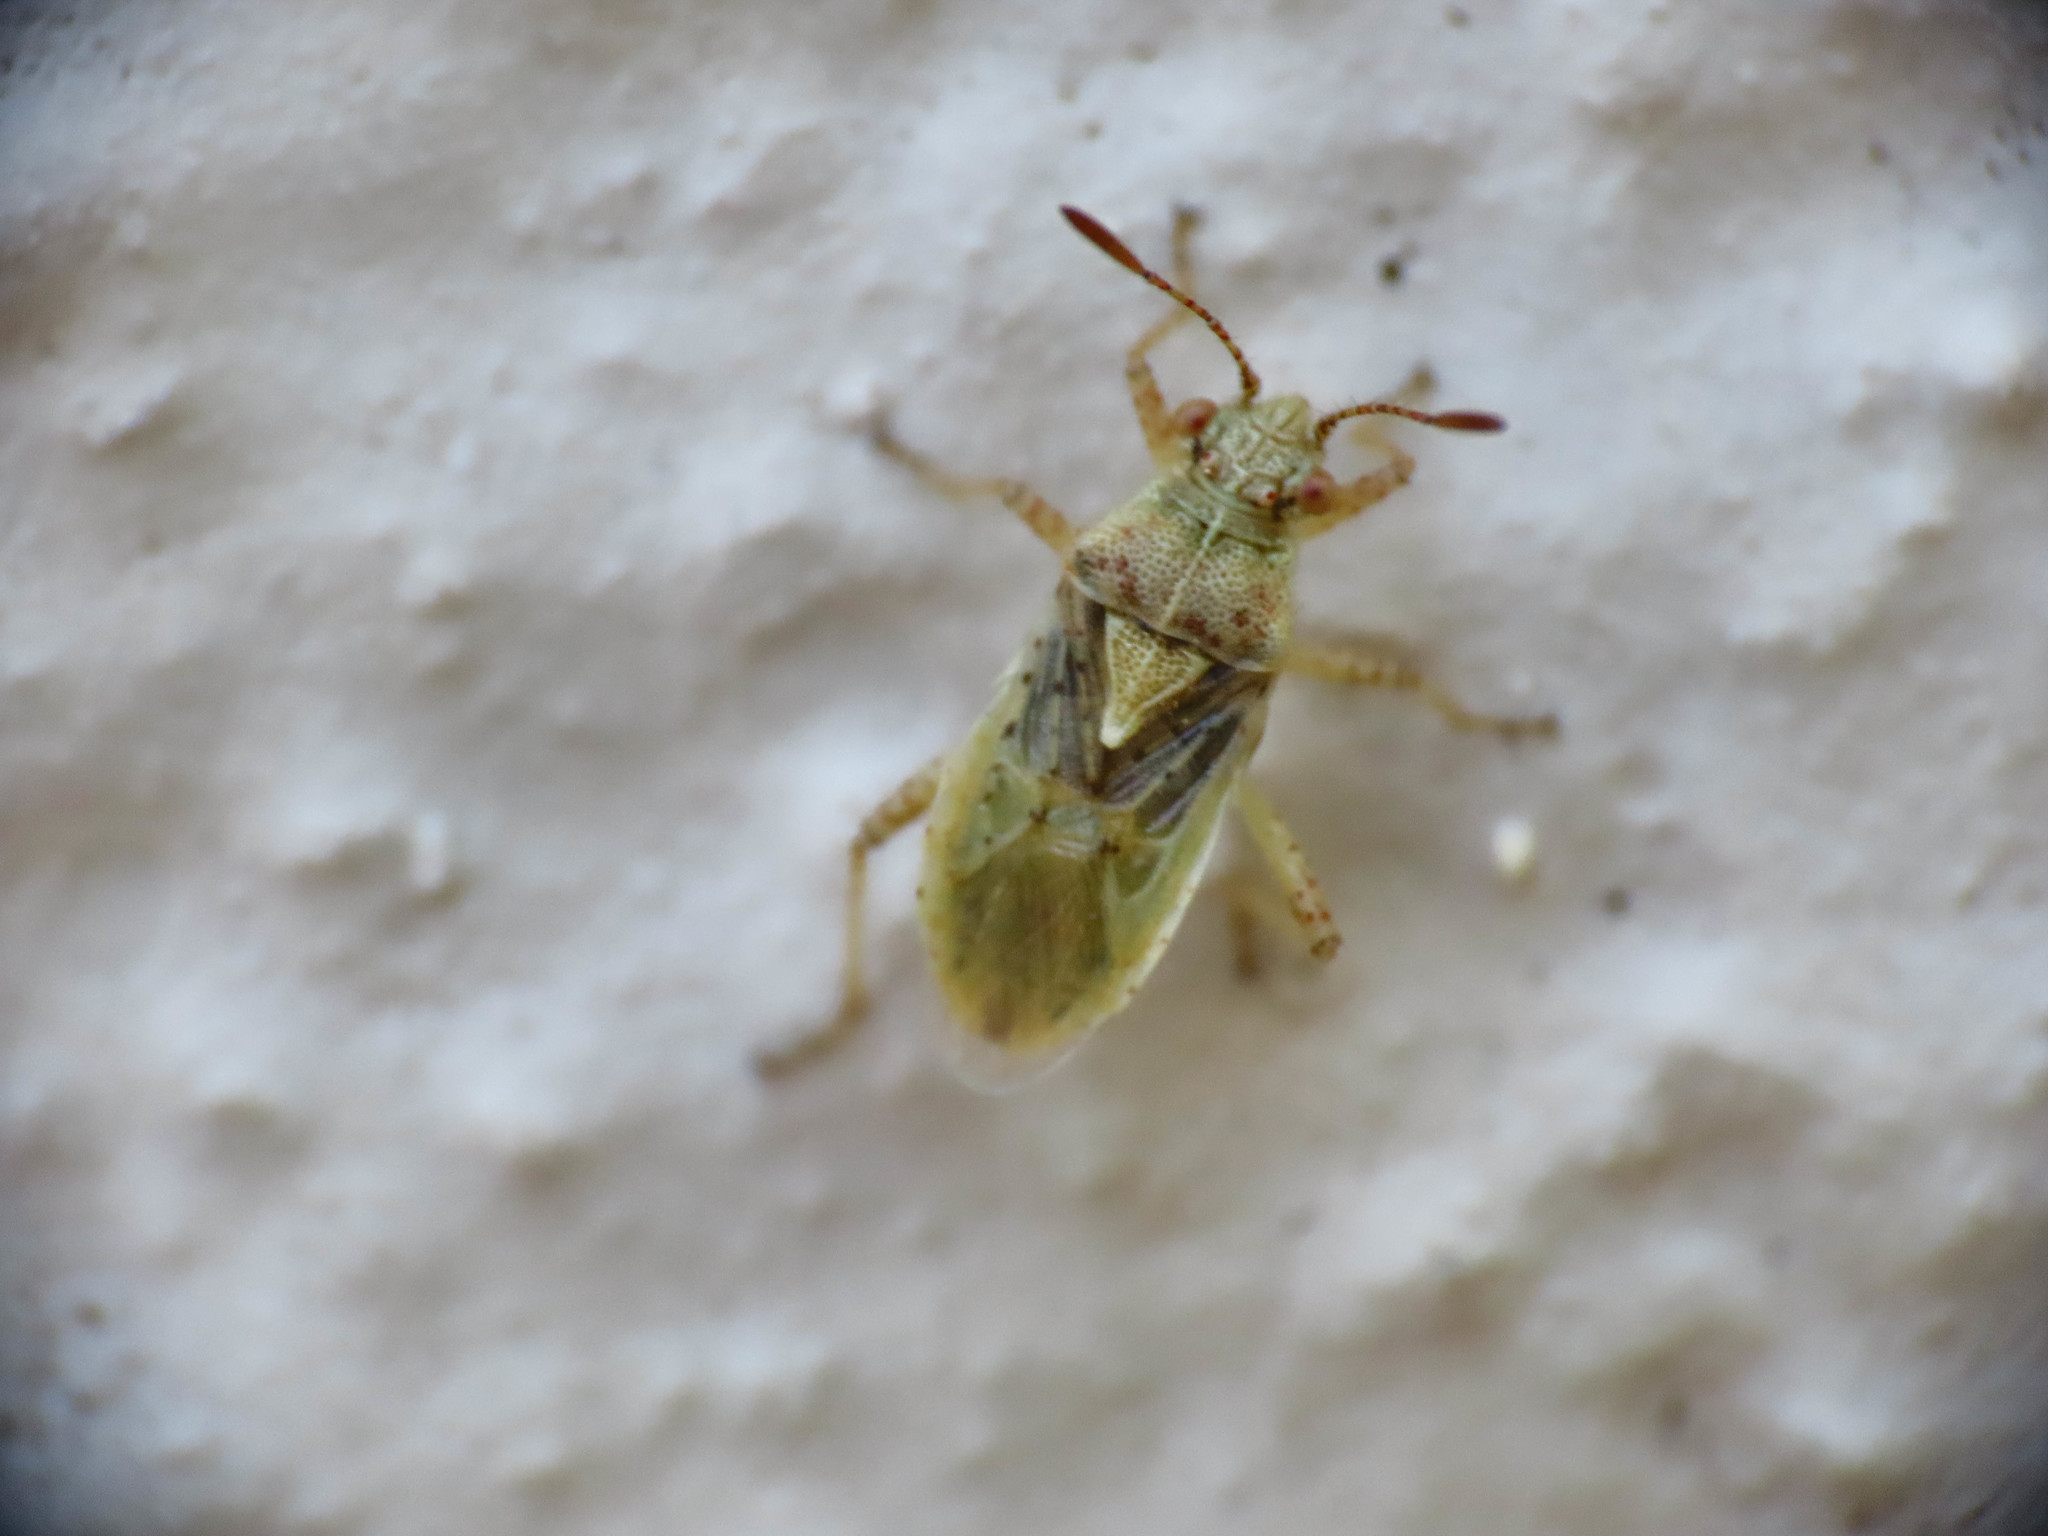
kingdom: Animalia
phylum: Arthropoda
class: Insecta
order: Hemiptera
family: Rhopalidae
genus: Rhopalus
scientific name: Rhopalus parumpunctatus
